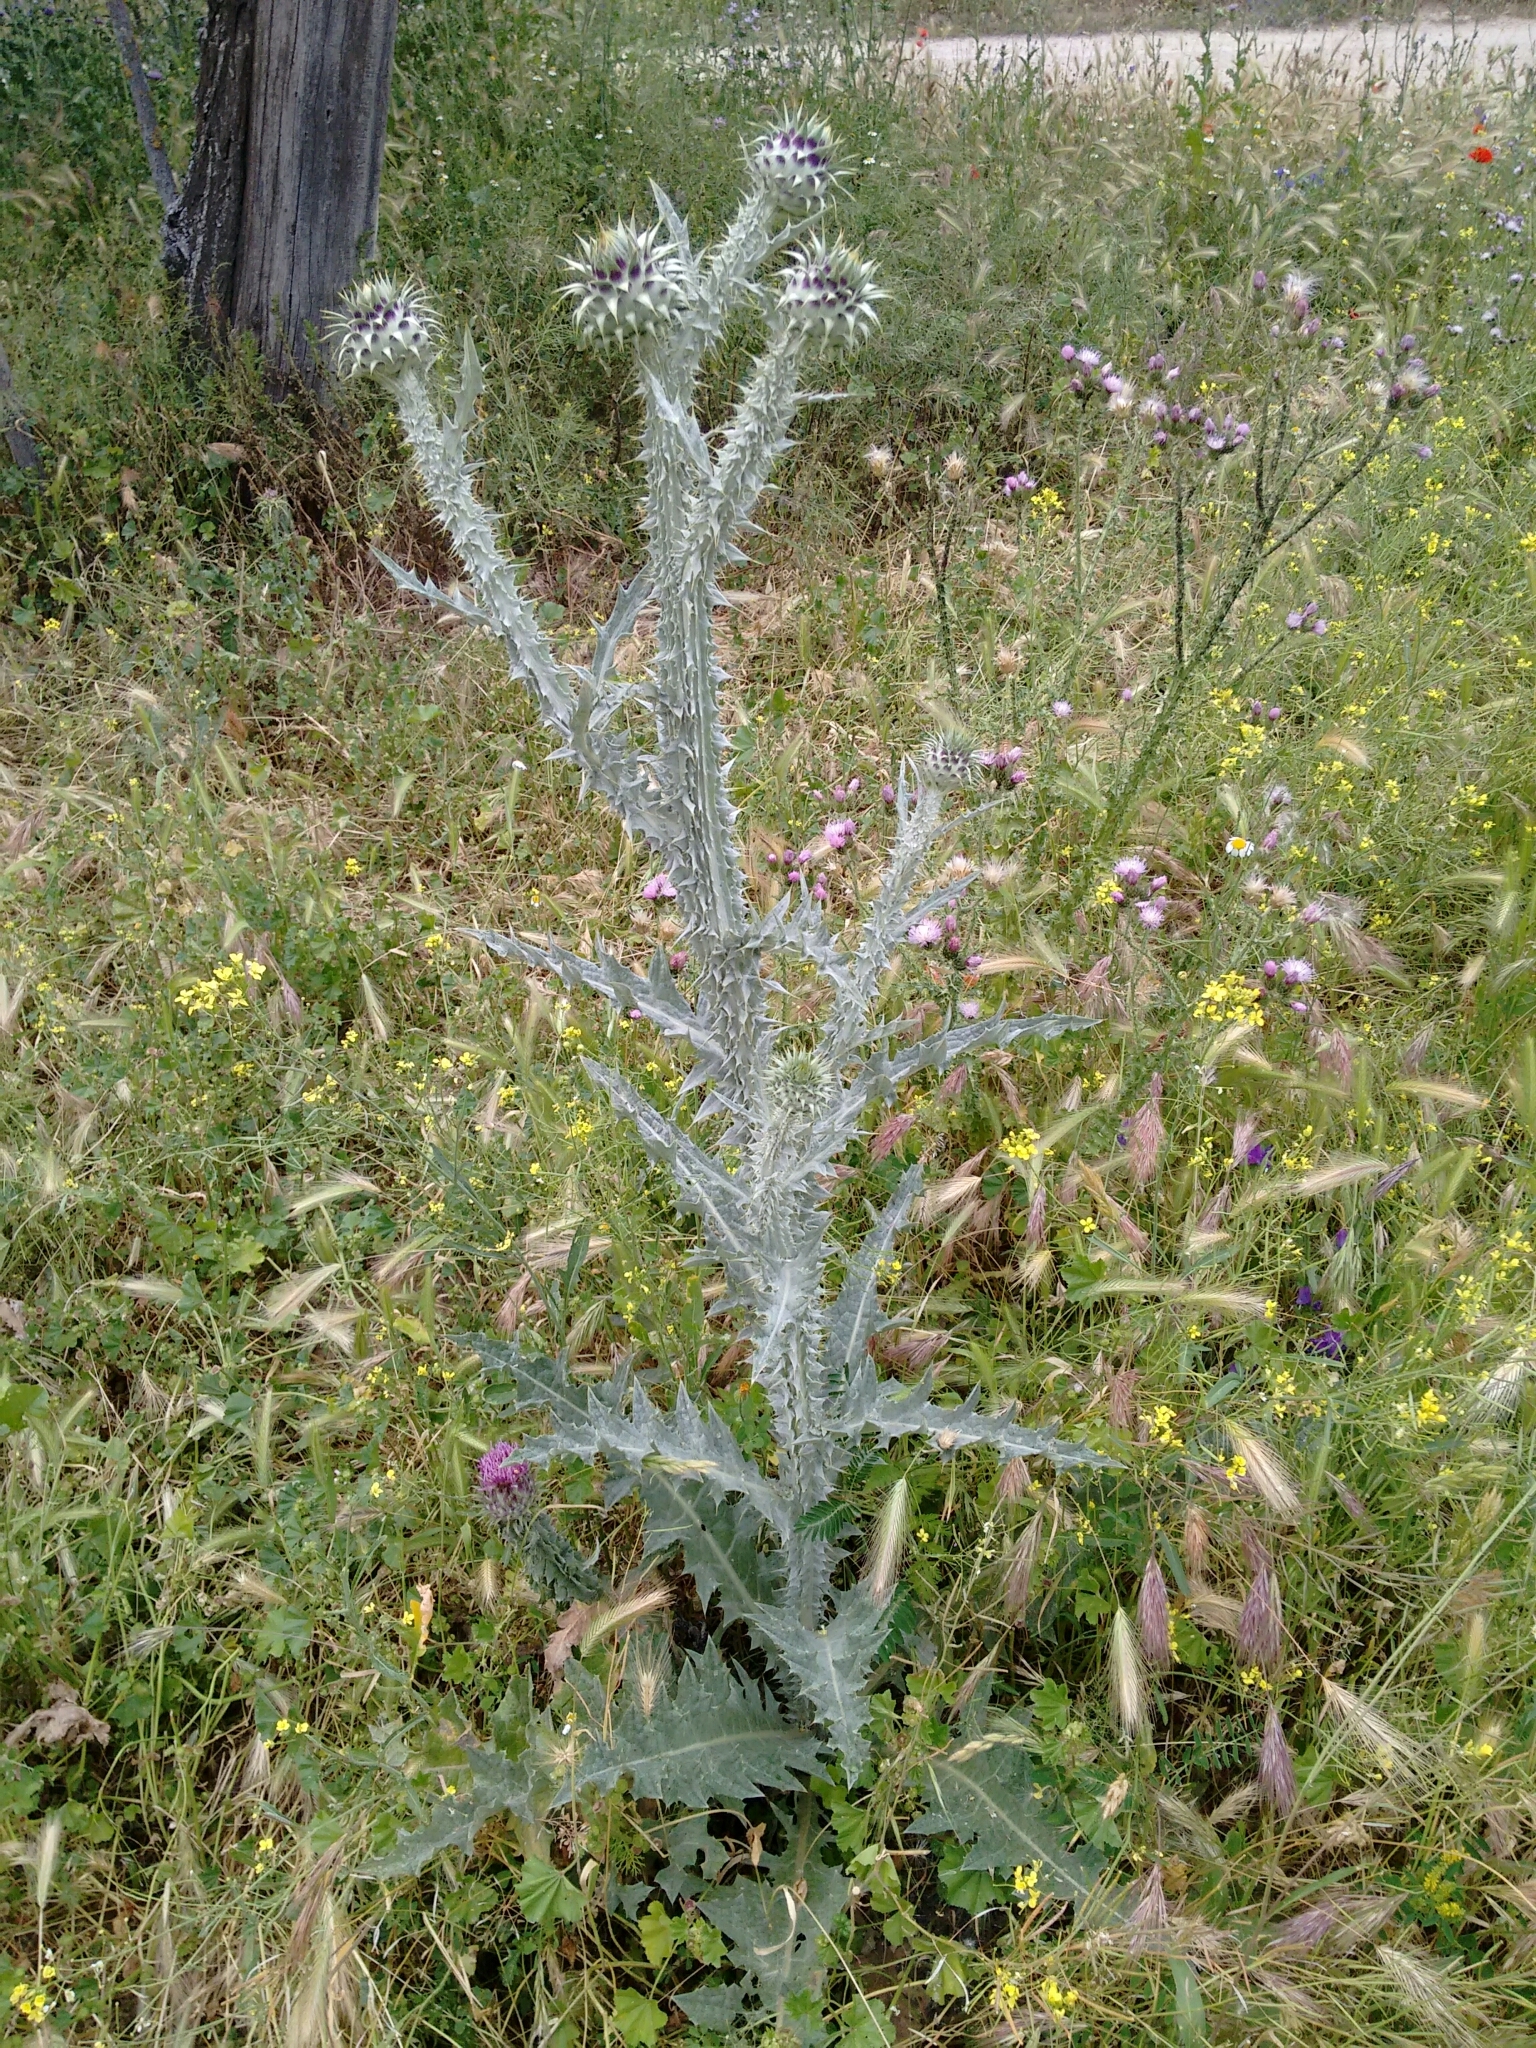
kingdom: Plantae
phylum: Tracheophyta
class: Magnoliopsida
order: Asterales
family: Asteraceae
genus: Onopordum
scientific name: Onopordum illyricum
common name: Illyrian thistle
